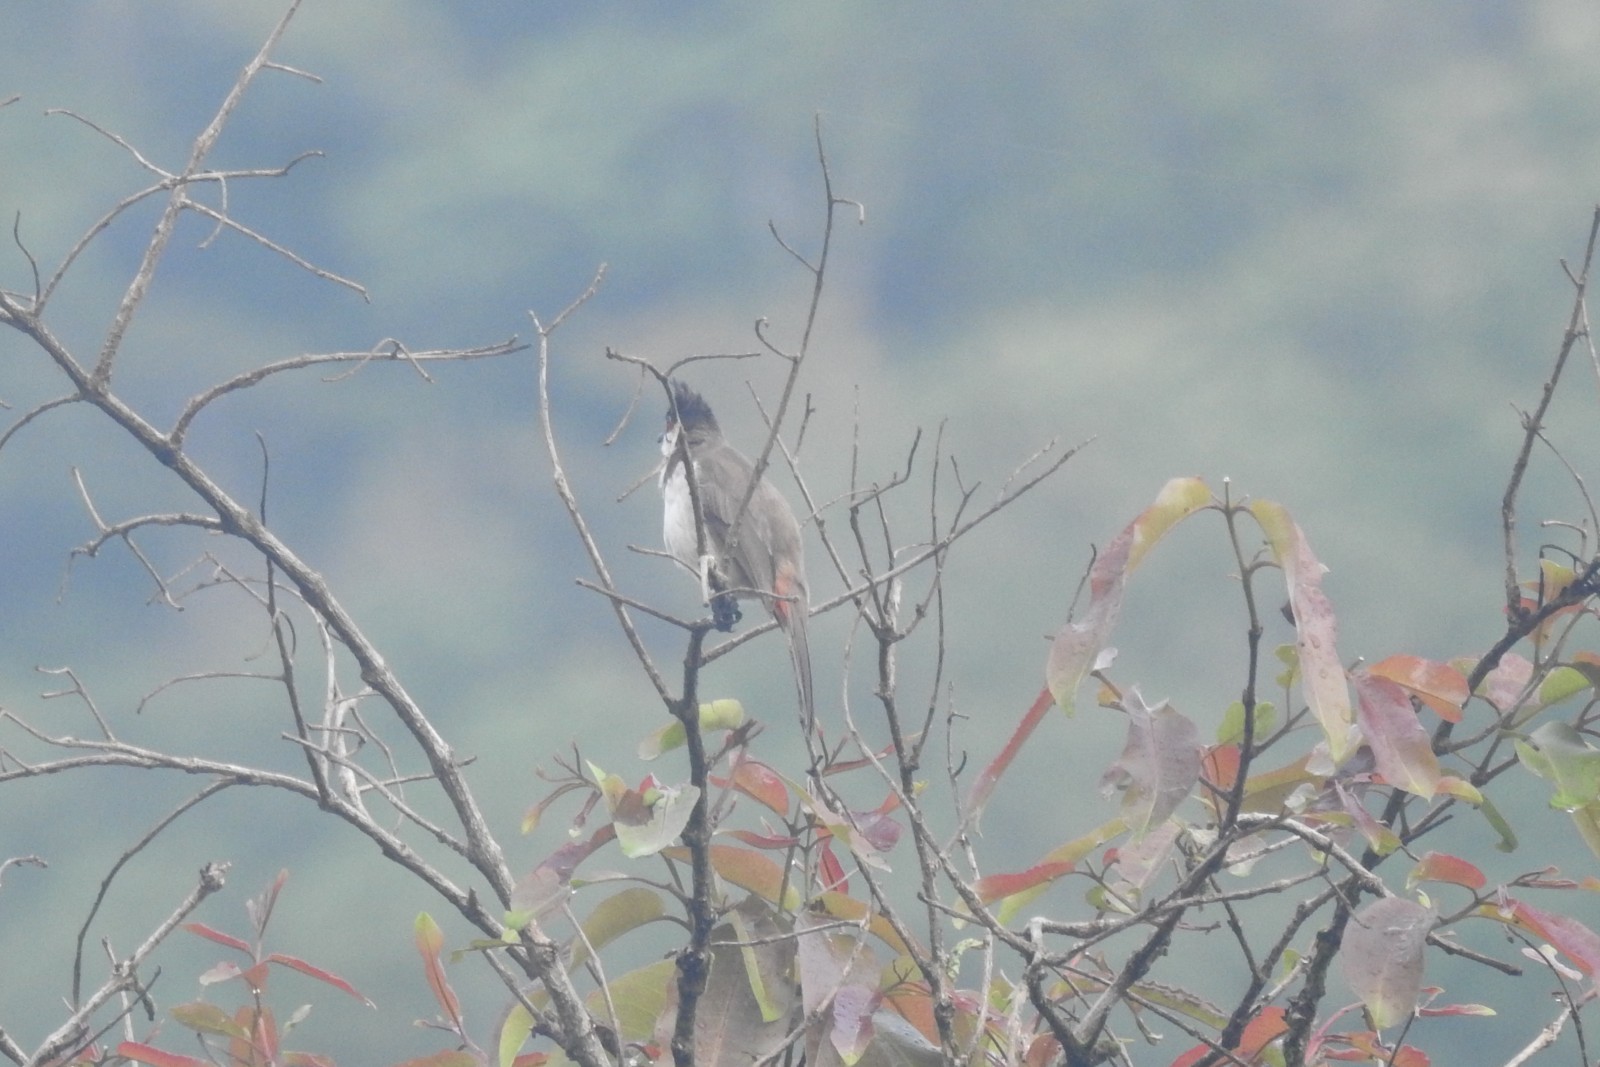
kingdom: Animalia
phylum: Chordata
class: Aves
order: Passeriformes
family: Pycnonotidae
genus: Pycnonotus
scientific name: Pycnonotus jocosus
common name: Red-whiskered bulbul
